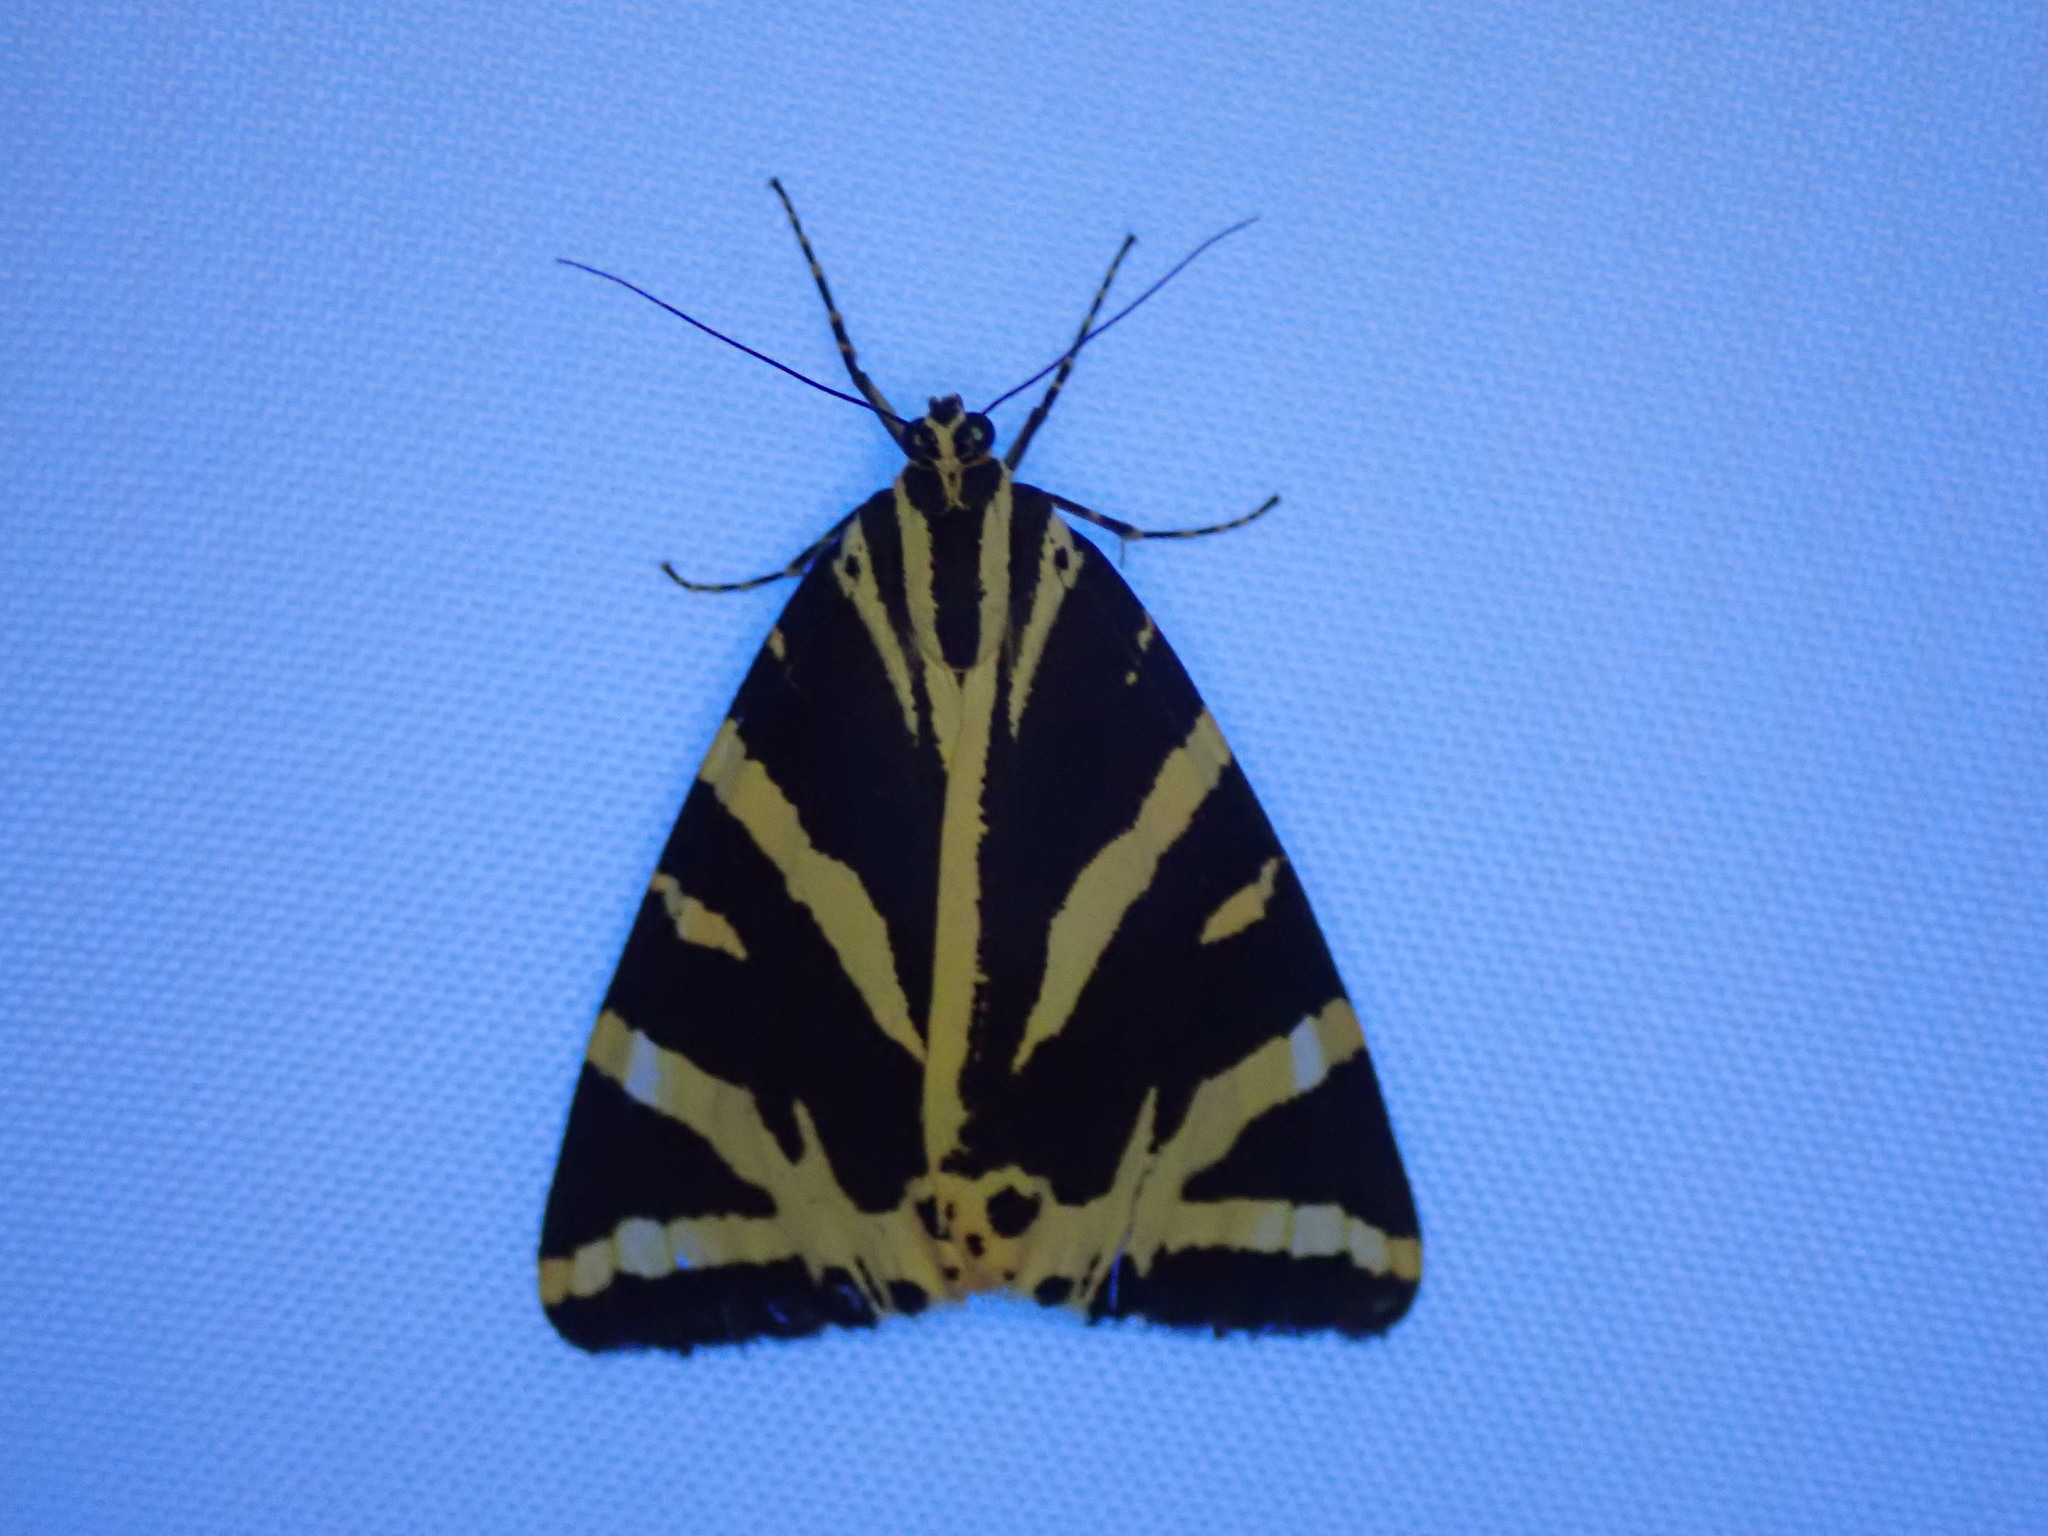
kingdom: Animalia
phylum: Arthropoda
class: Insecta
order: Lepidoptera
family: Erebidae
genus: Euplagia
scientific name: Euplagia quadripunctaria
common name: Jersey tiger
